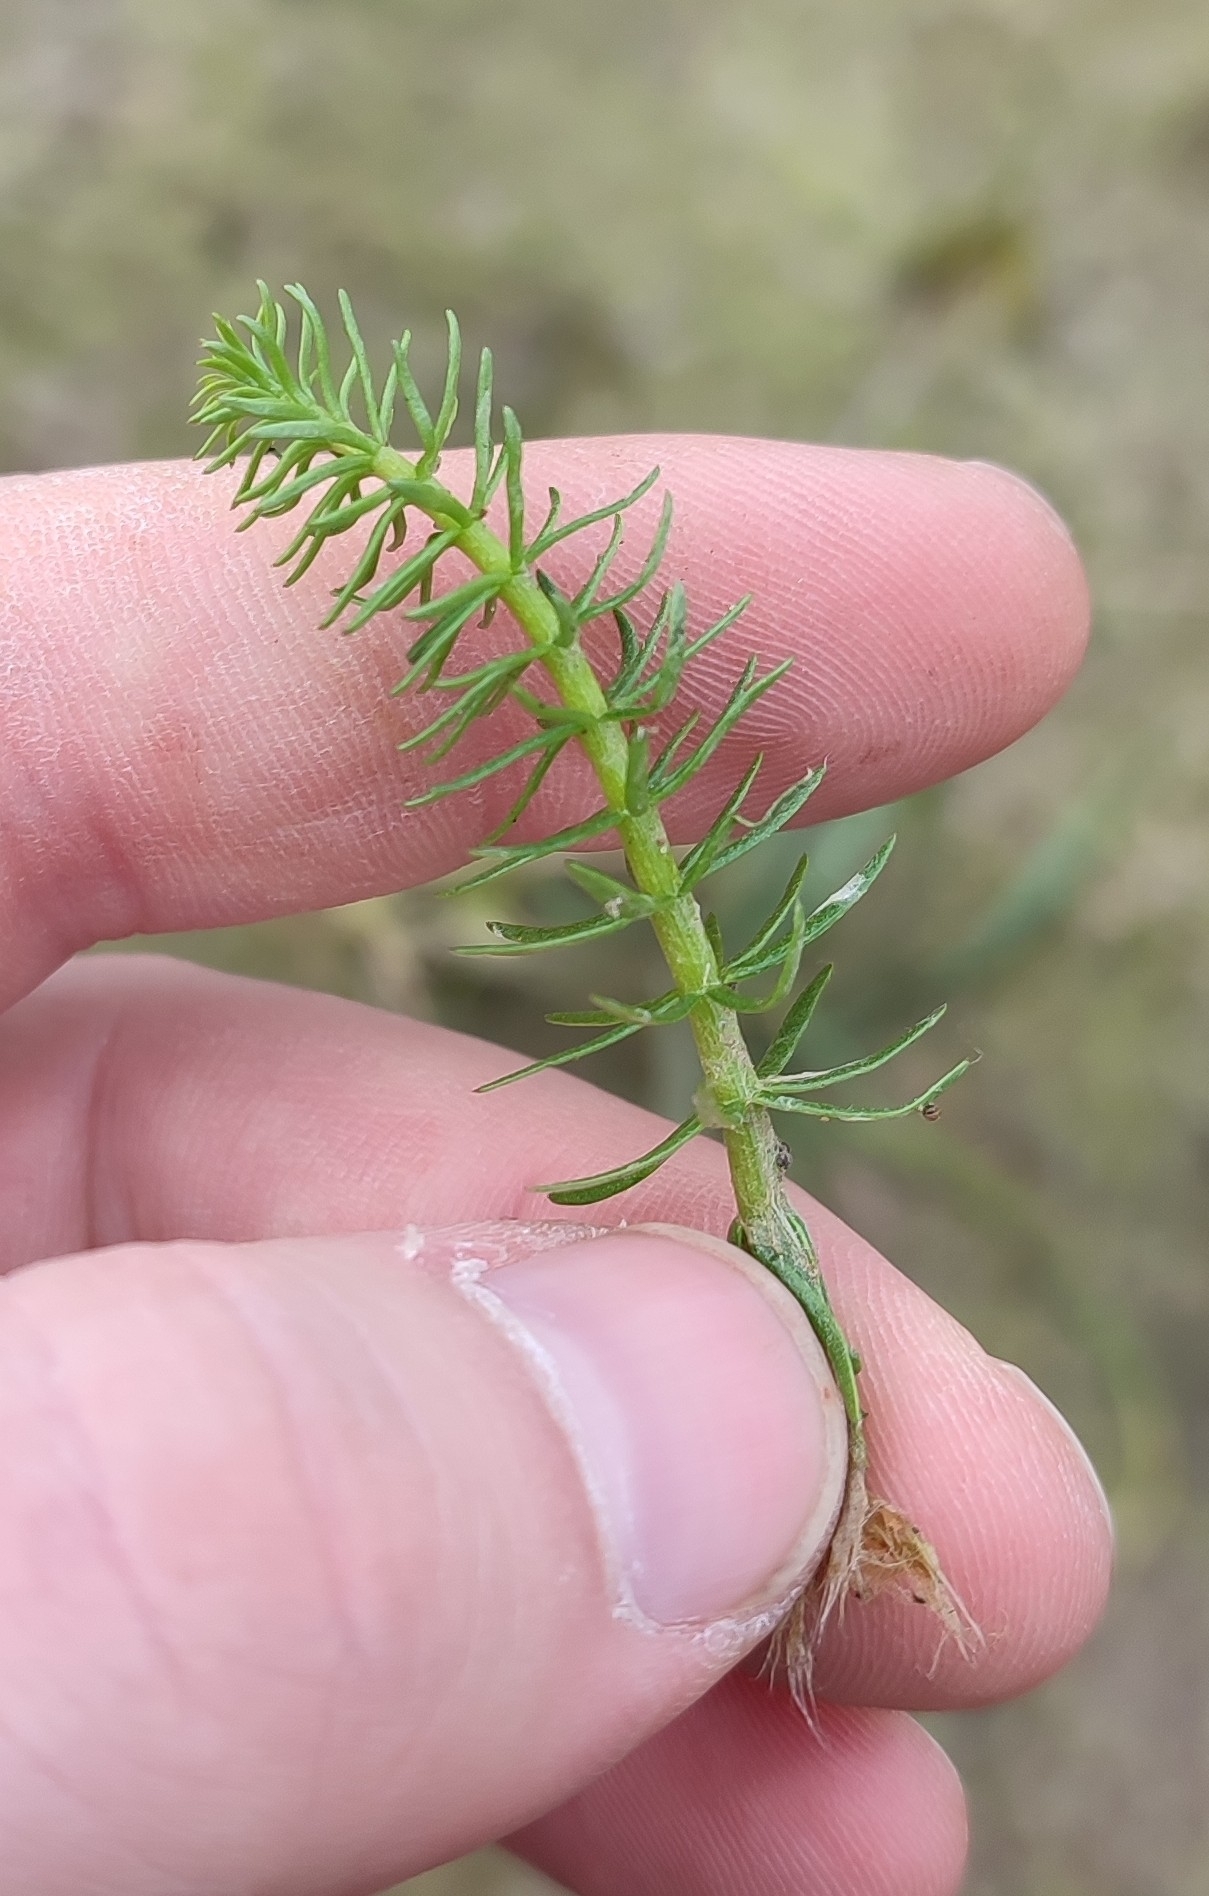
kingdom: Plantae
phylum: Tracheophyta
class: Magnoliopsida
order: Lamiales
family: Plantaginaceae
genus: Hippuris
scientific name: Hippuris vulgaris
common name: Mare's-tail
